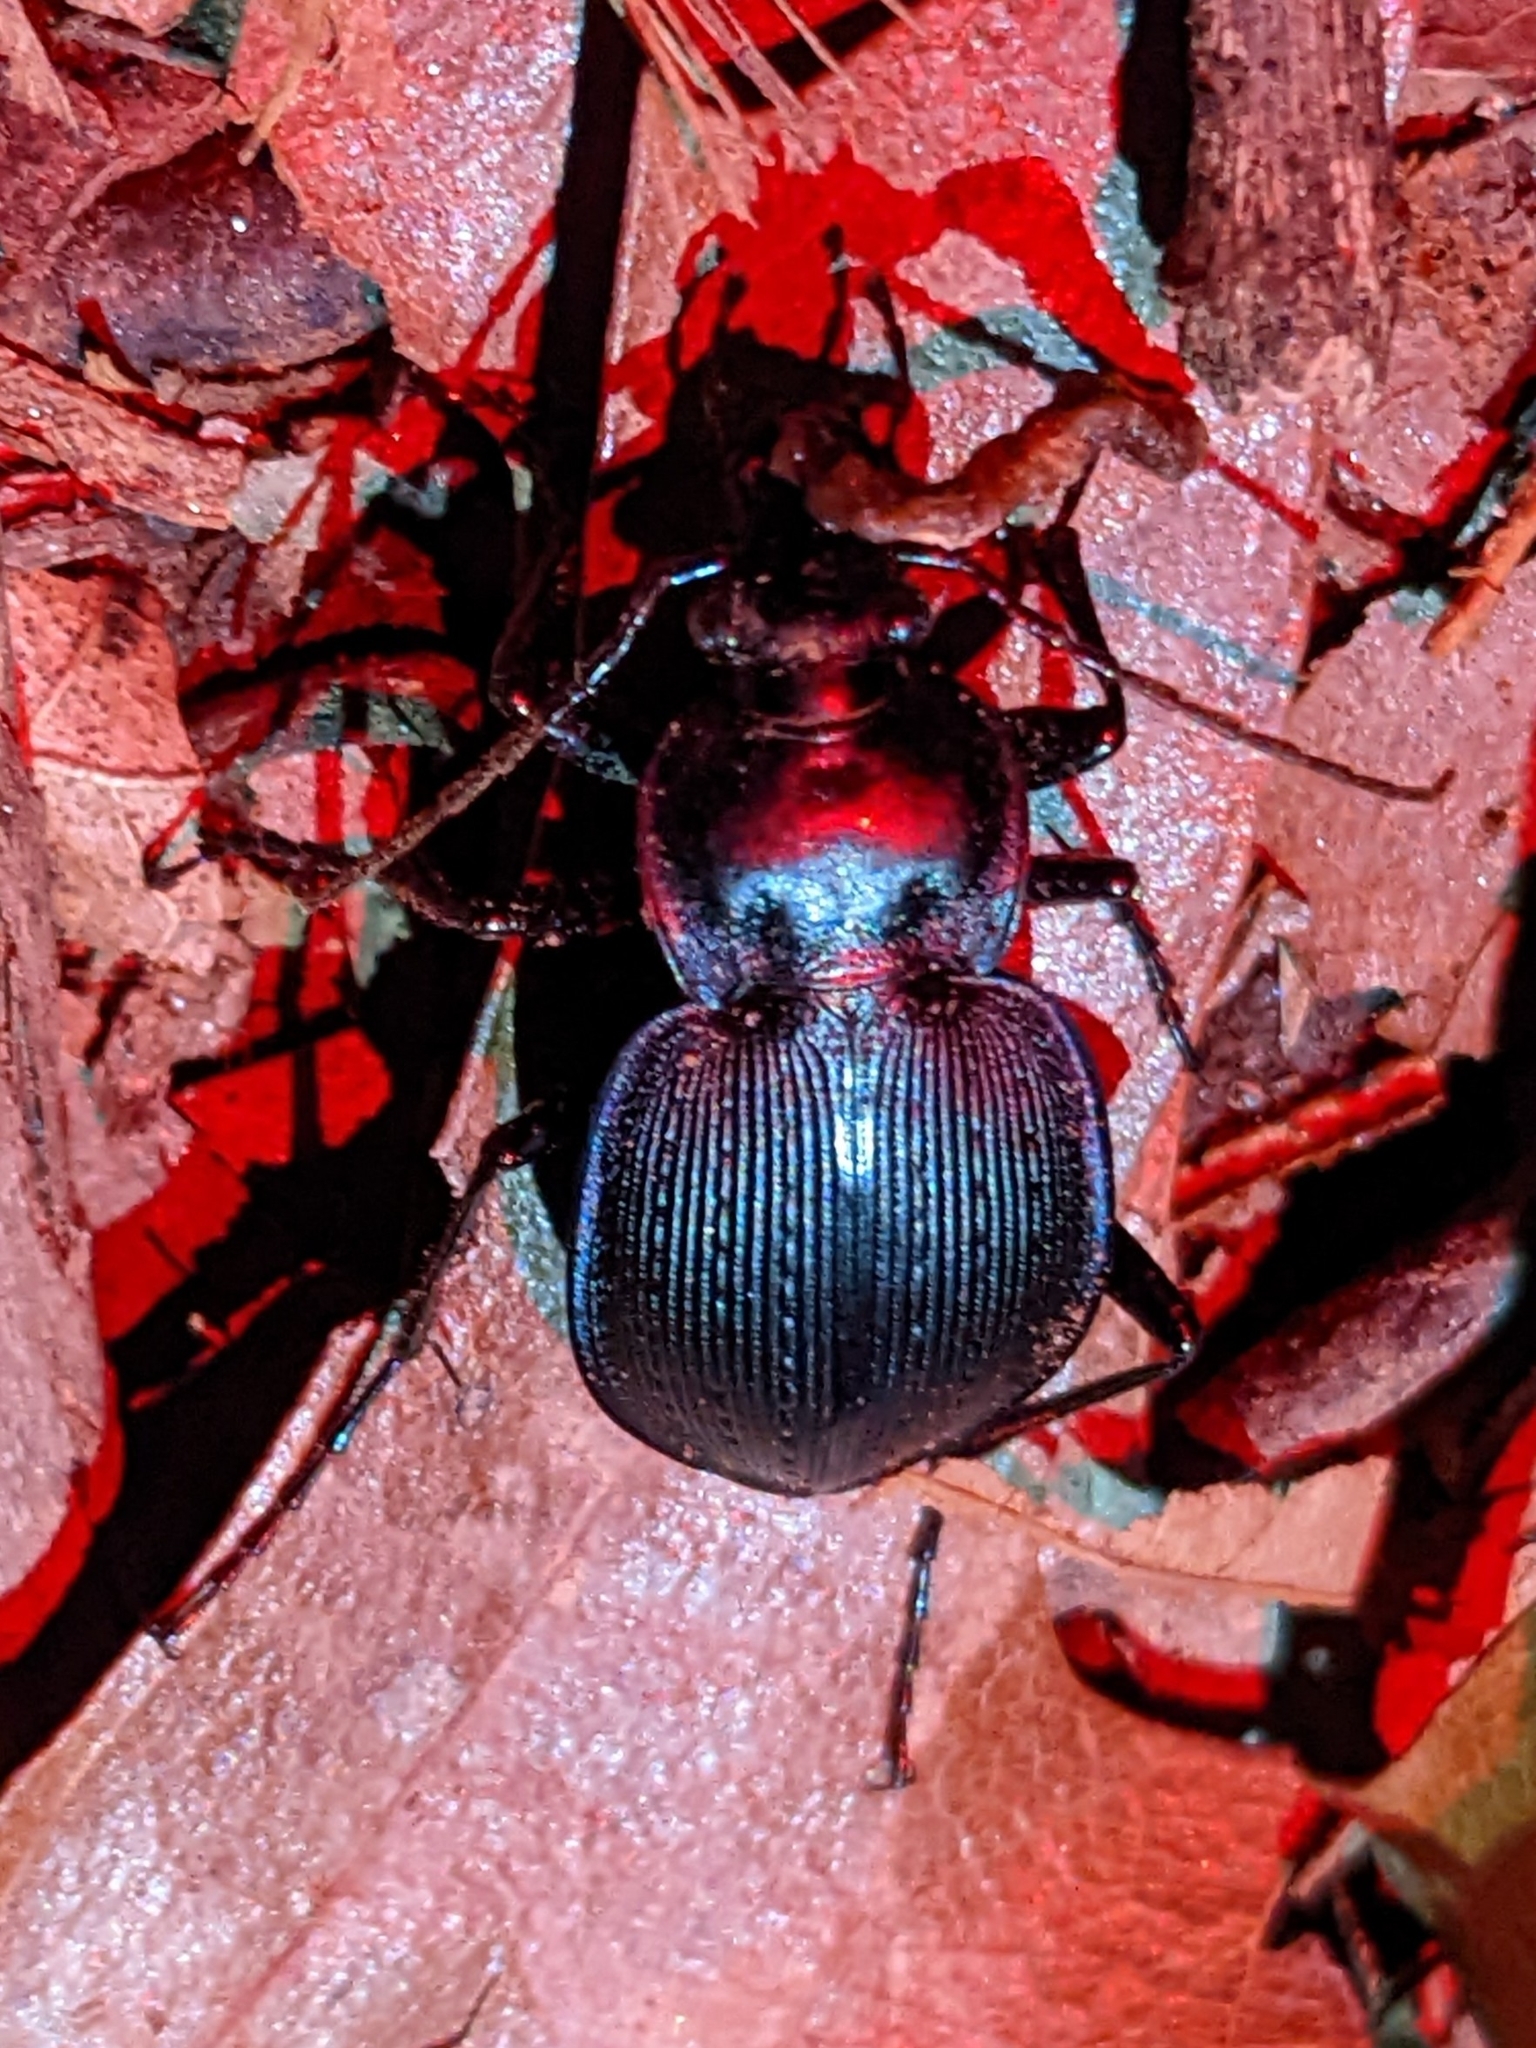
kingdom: Animalia
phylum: Arthropoda
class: Insecta
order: Coleoptera
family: Carabidae
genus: Carabus
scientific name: Carabus goryi
